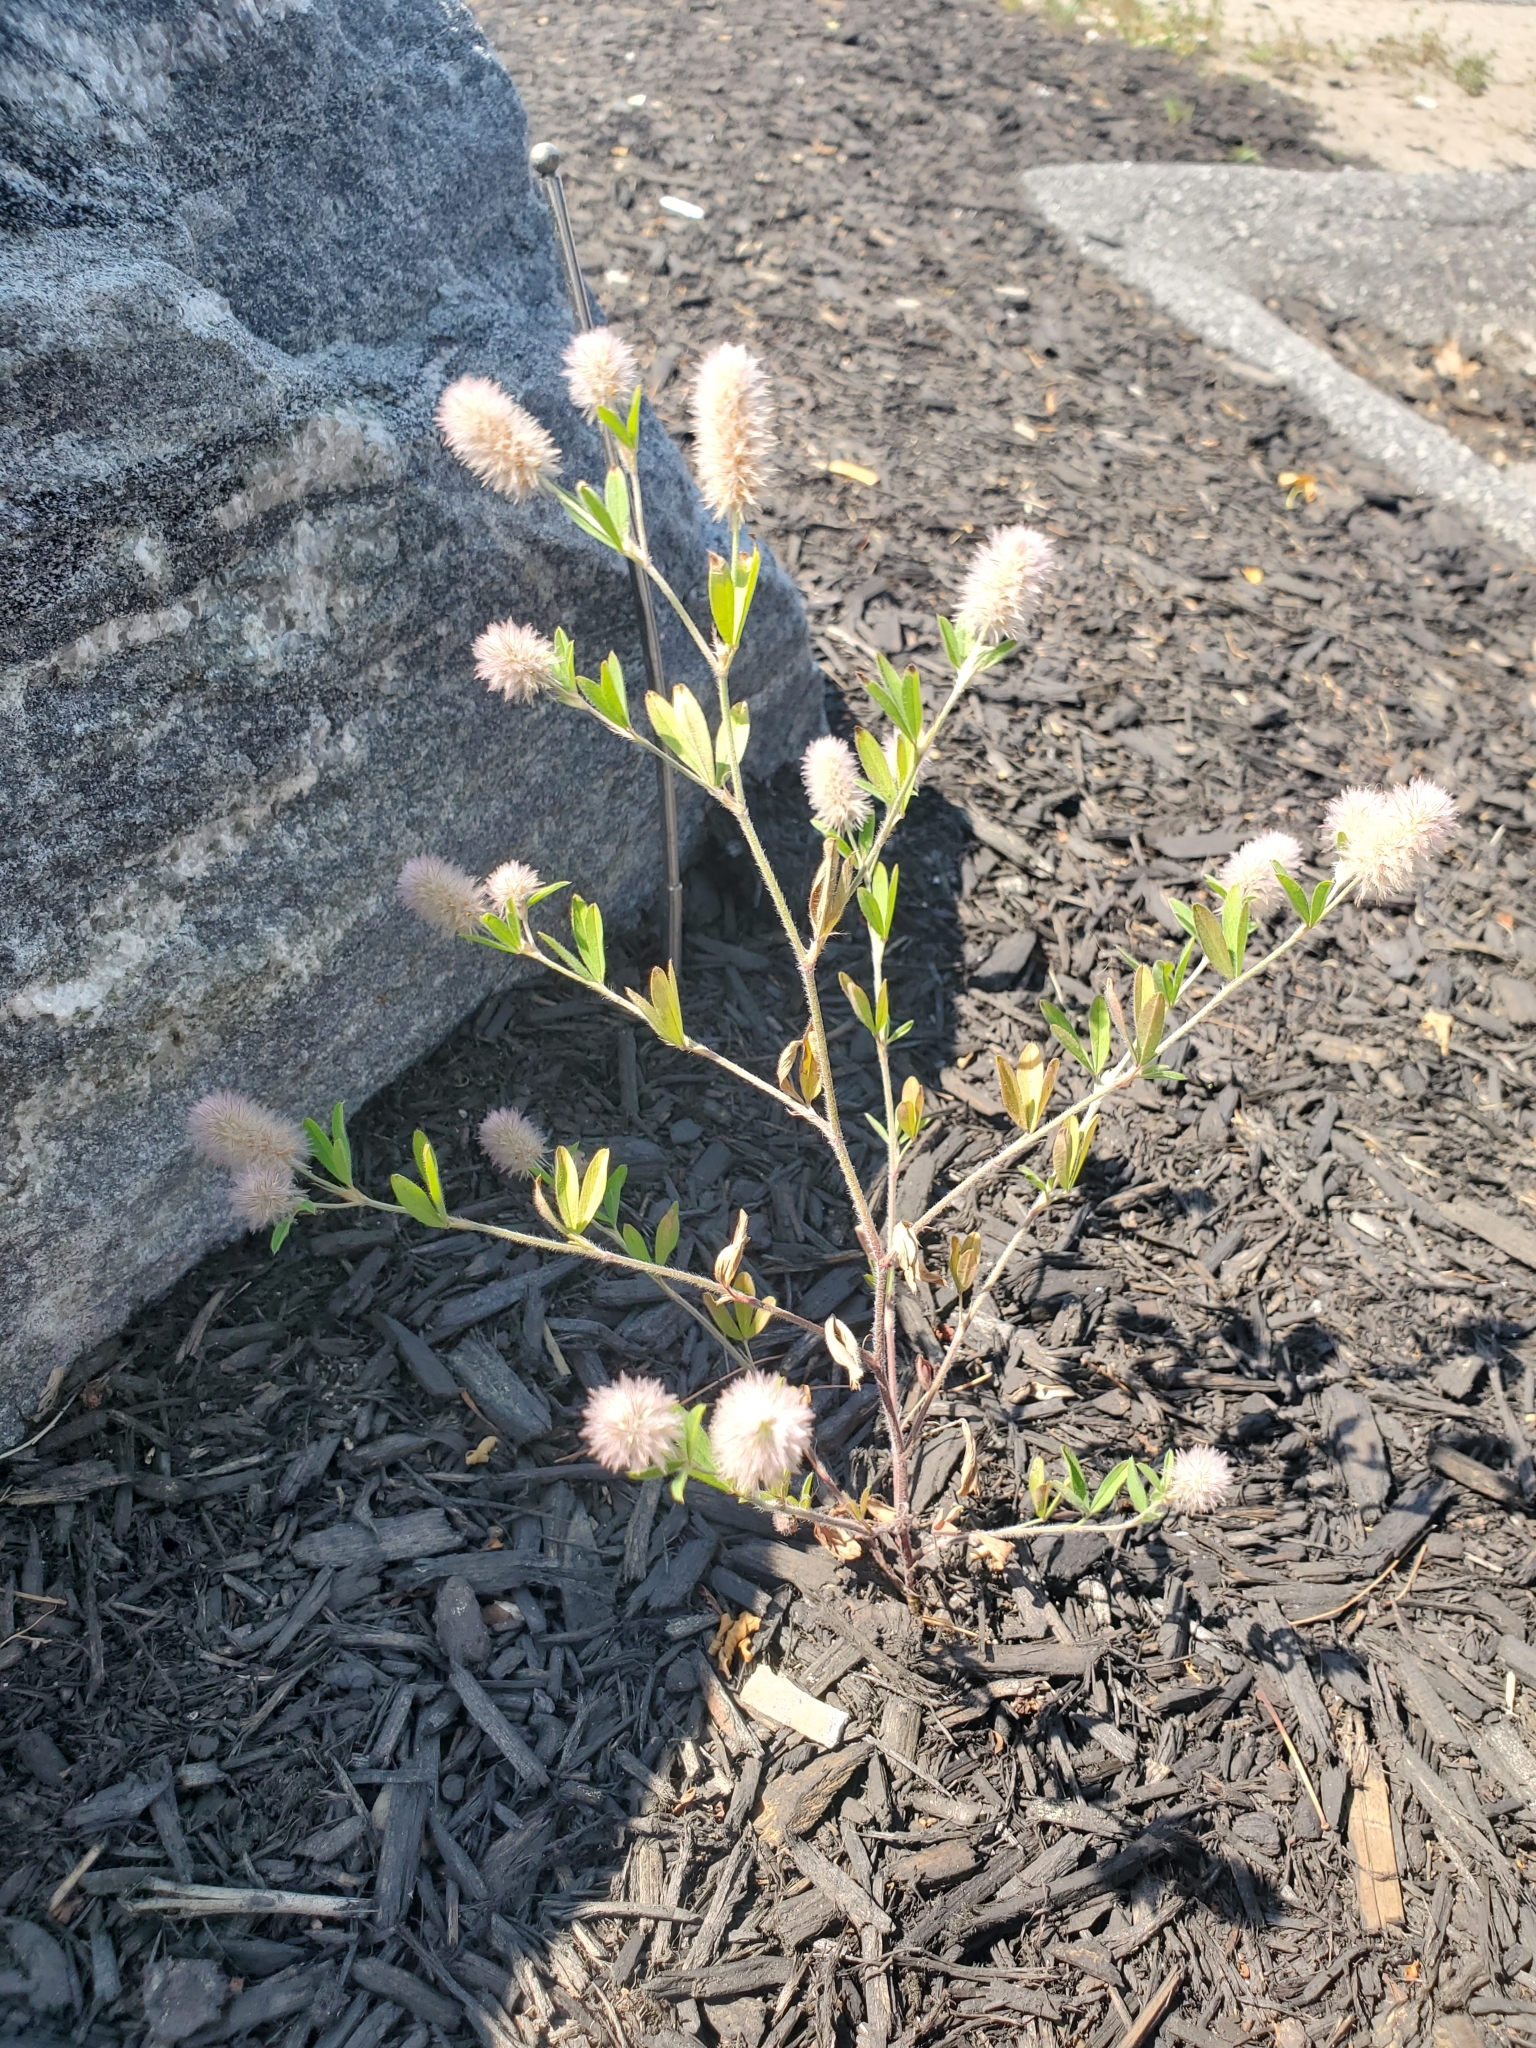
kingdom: Plantae
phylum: Tracheophyta
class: Magnoliopsida
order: Fabales
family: Fabaceae
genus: Trifolium
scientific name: Trifolium arvense
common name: Hare's-foot clover
